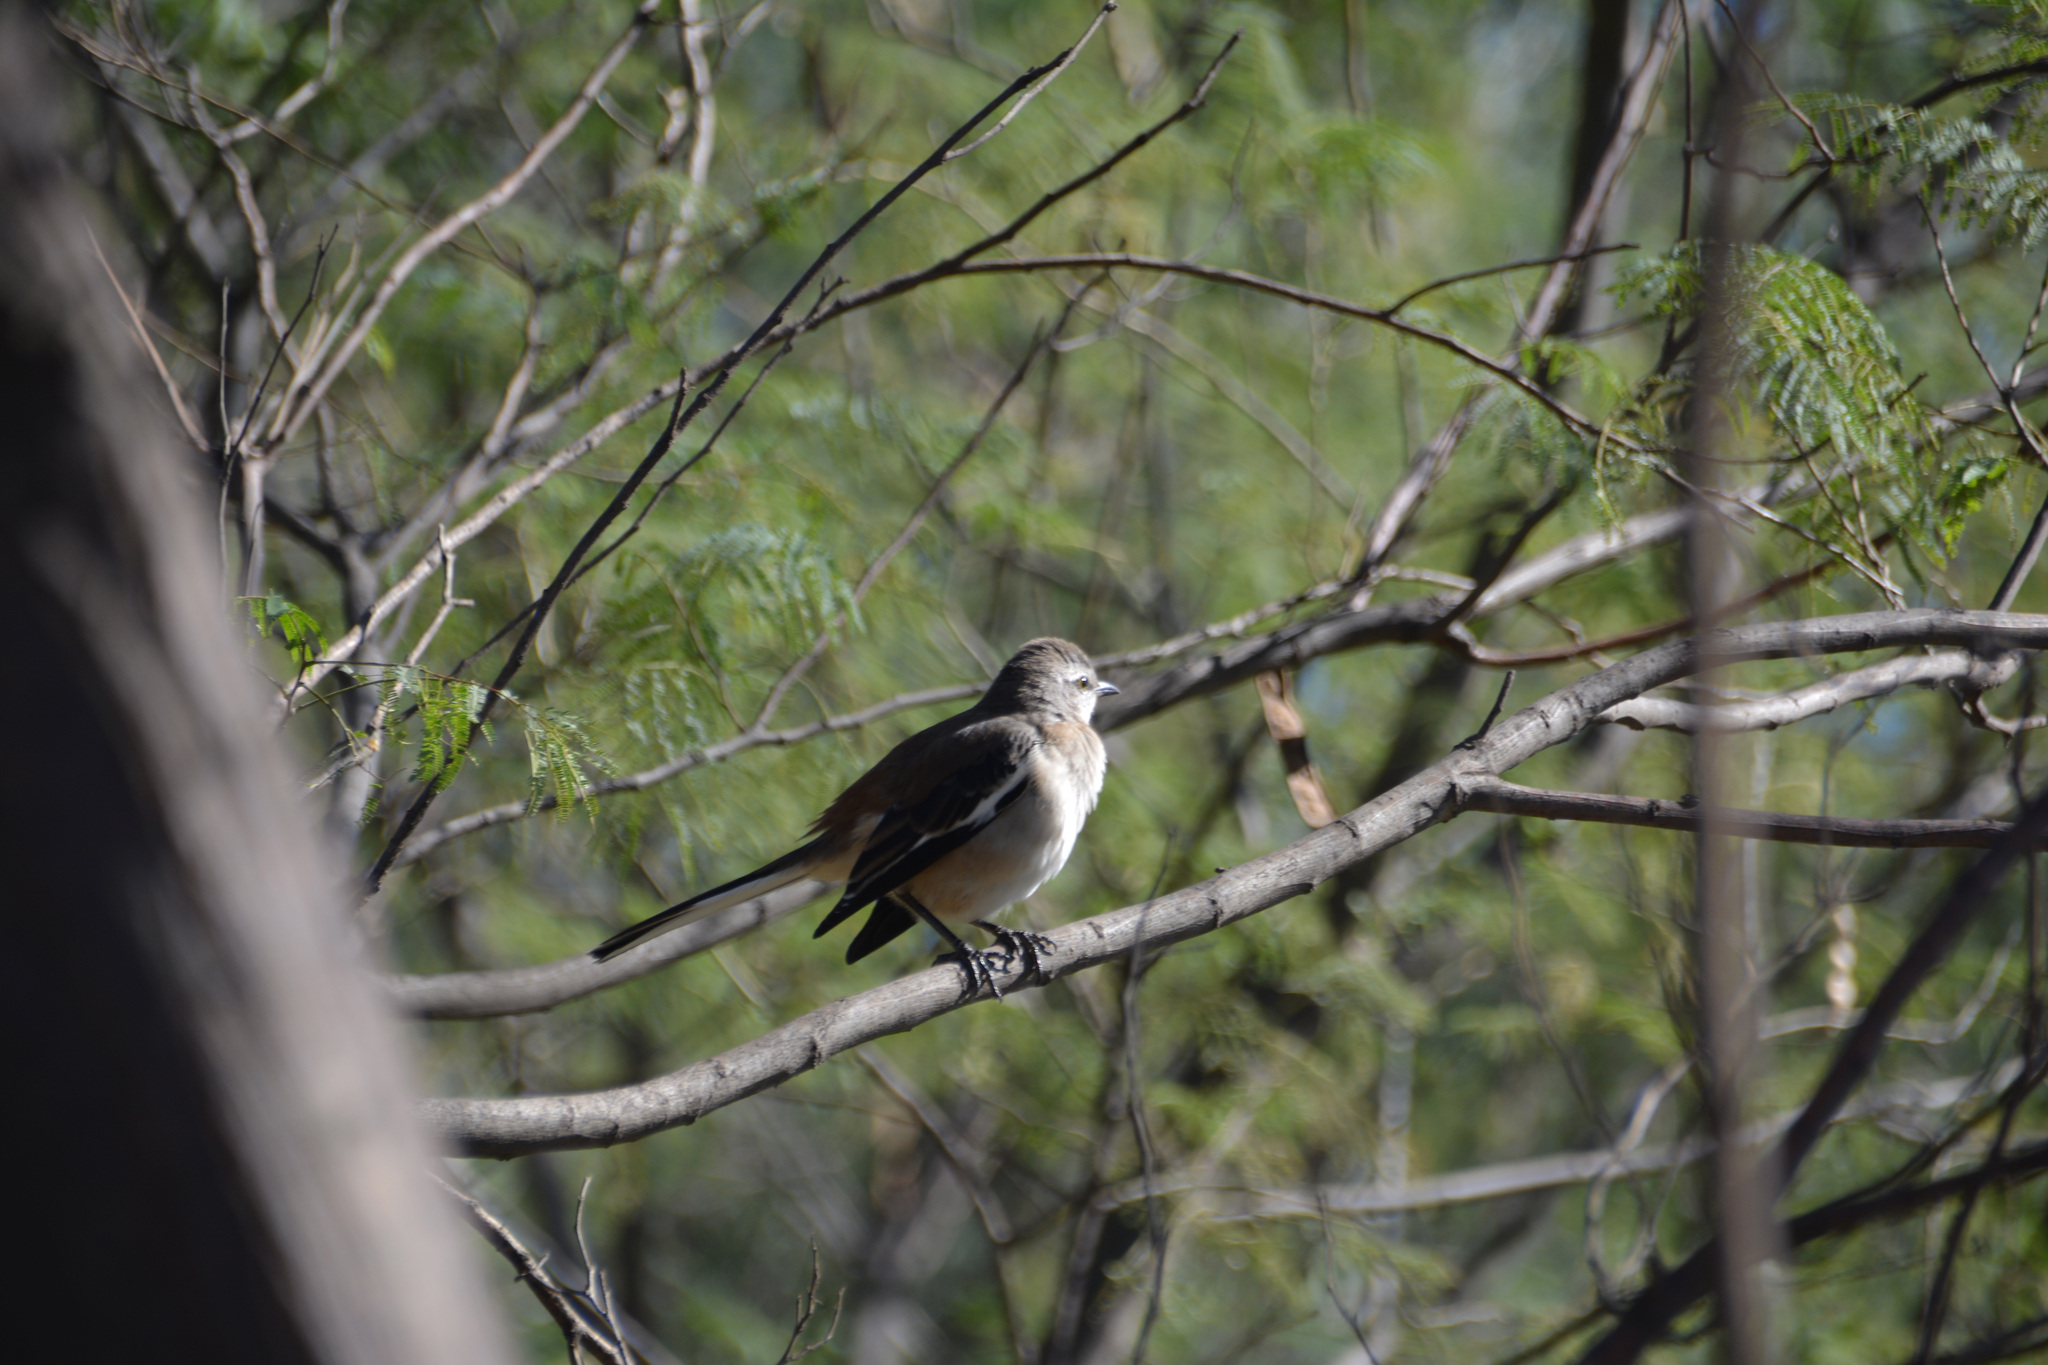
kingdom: Animalia
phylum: Chordata
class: Aves
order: Passeriformes
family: Mimidae
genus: Mimus
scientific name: Mimus triurus
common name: White-banded mockingbird
